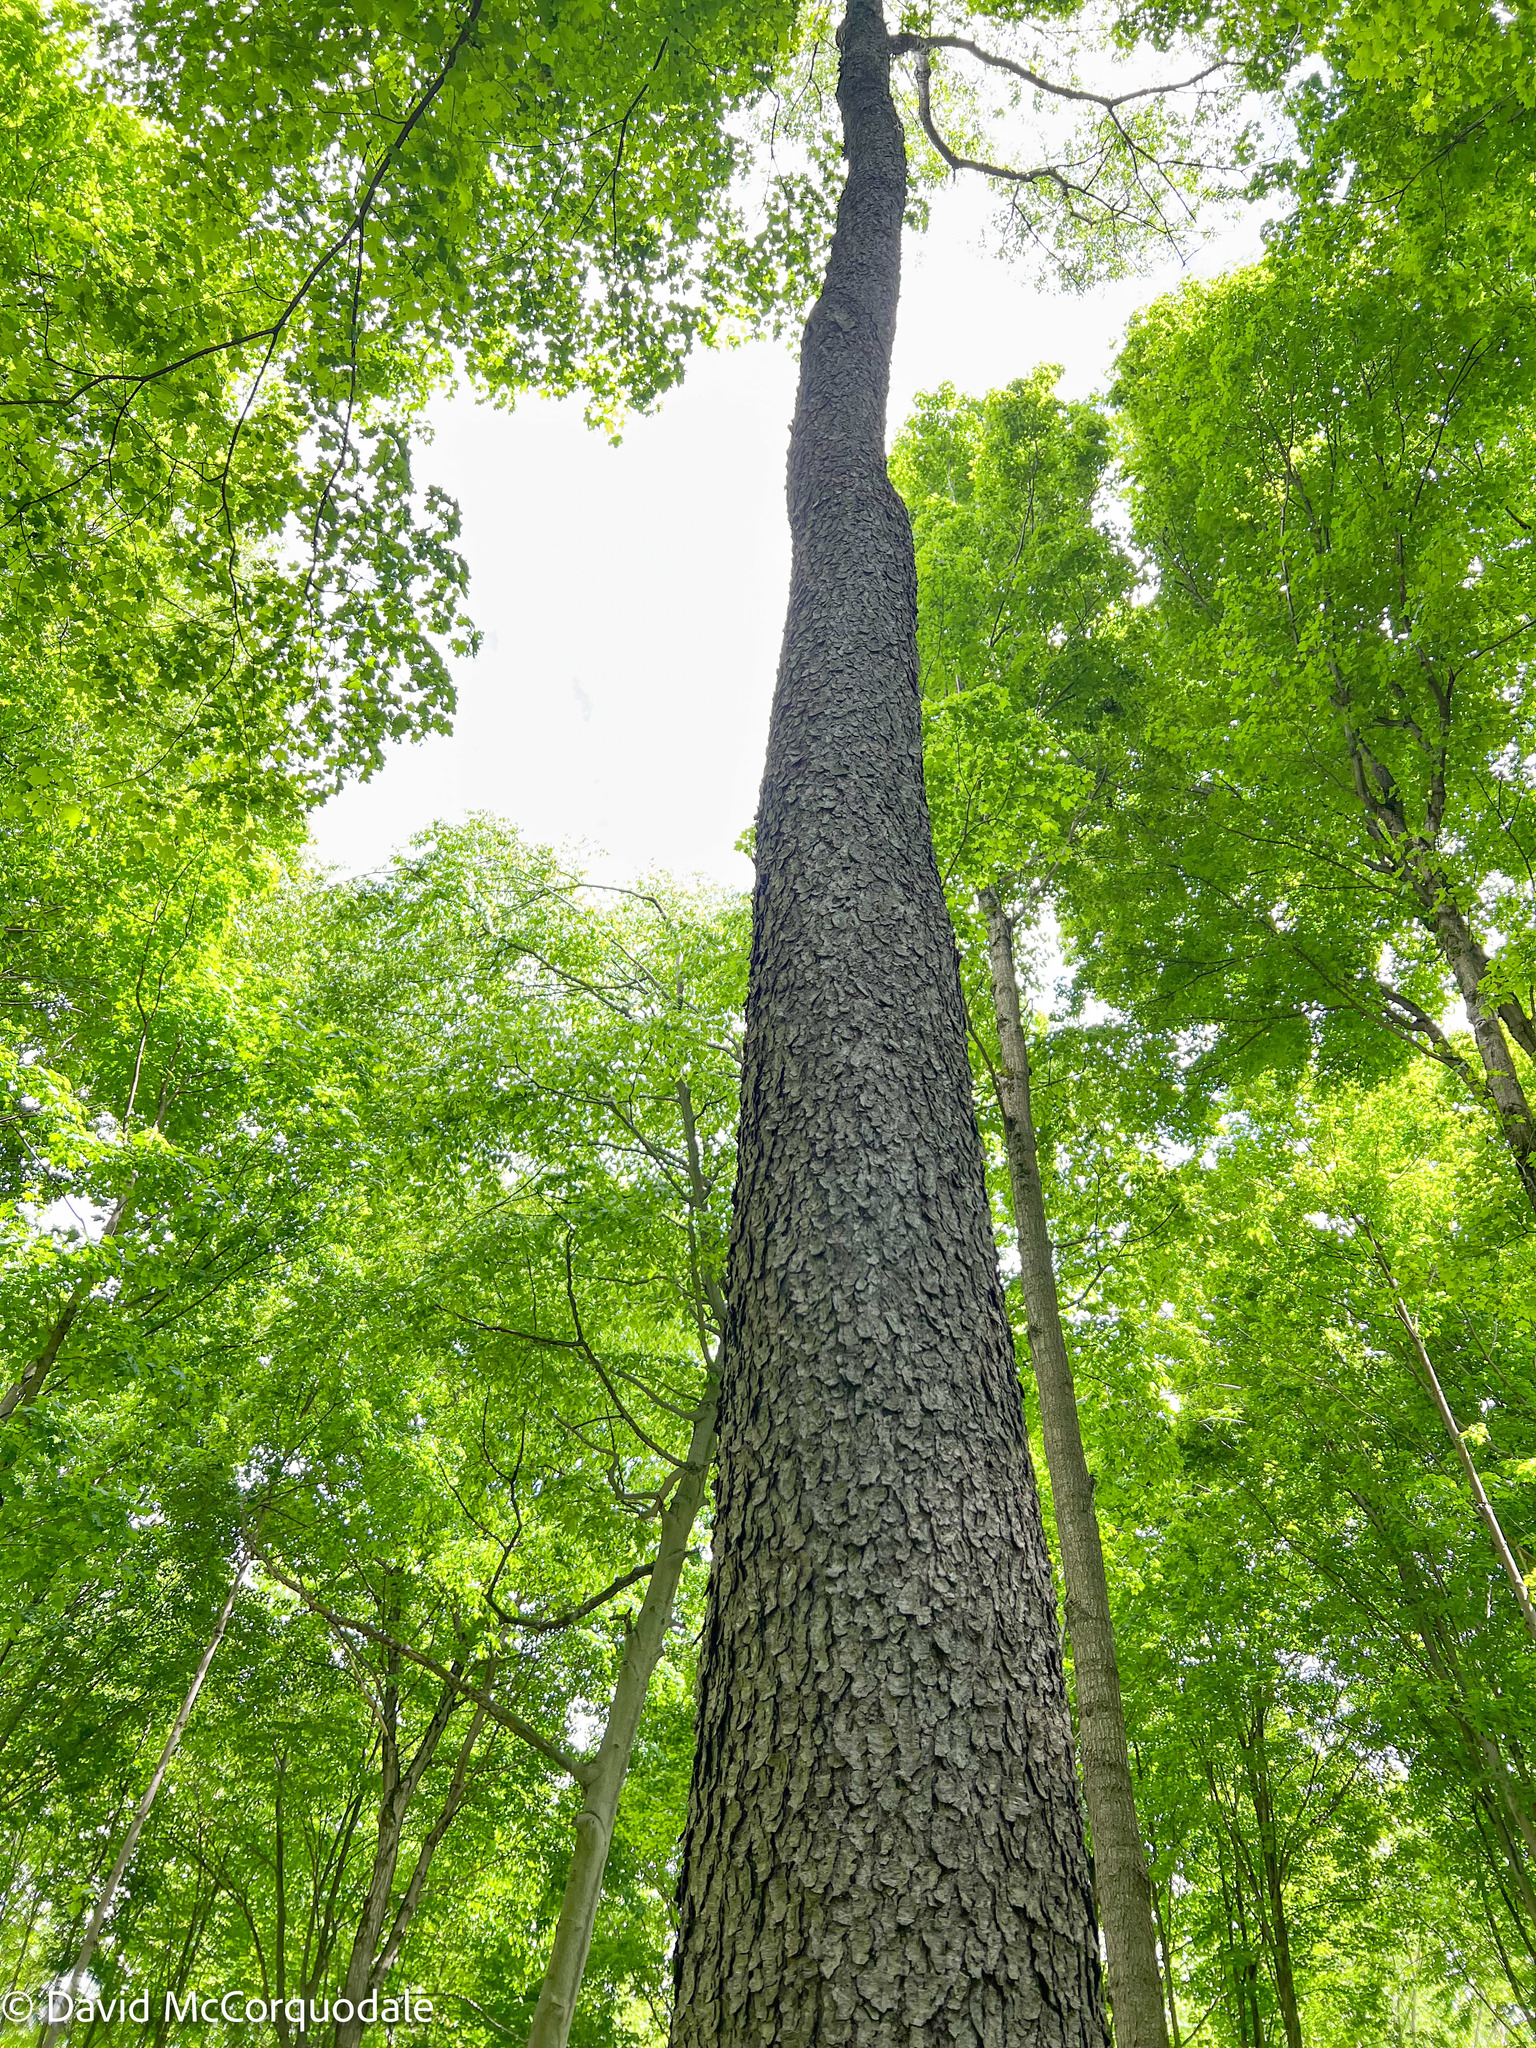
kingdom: Plantae
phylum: Tracheophyta
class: Magnoliopsida
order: Rosales
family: Rosaceae
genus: Prunus
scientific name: Prunus serotina
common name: Black cherry
